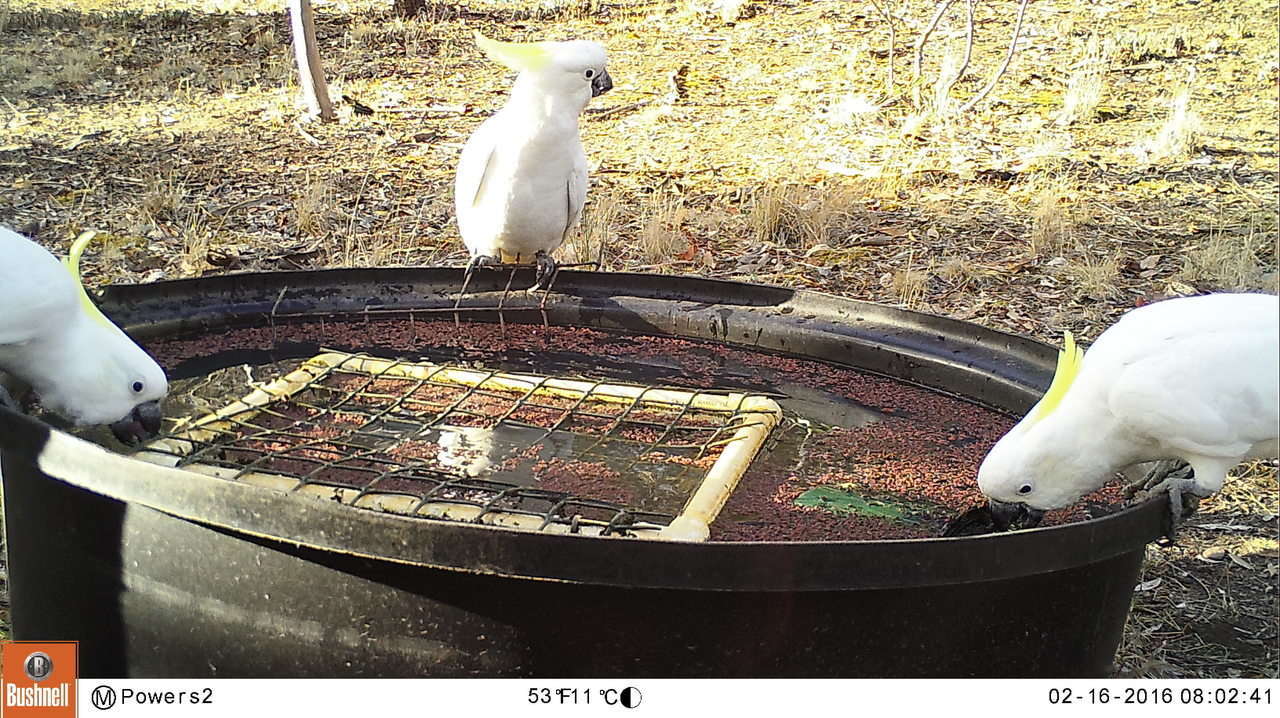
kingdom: Animalia
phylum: Chordata
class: Aves
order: Psittaciformes
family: Psittacidae
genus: Cacatua
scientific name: Cacatua galerita
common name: Sulphur-crested cockatoo
